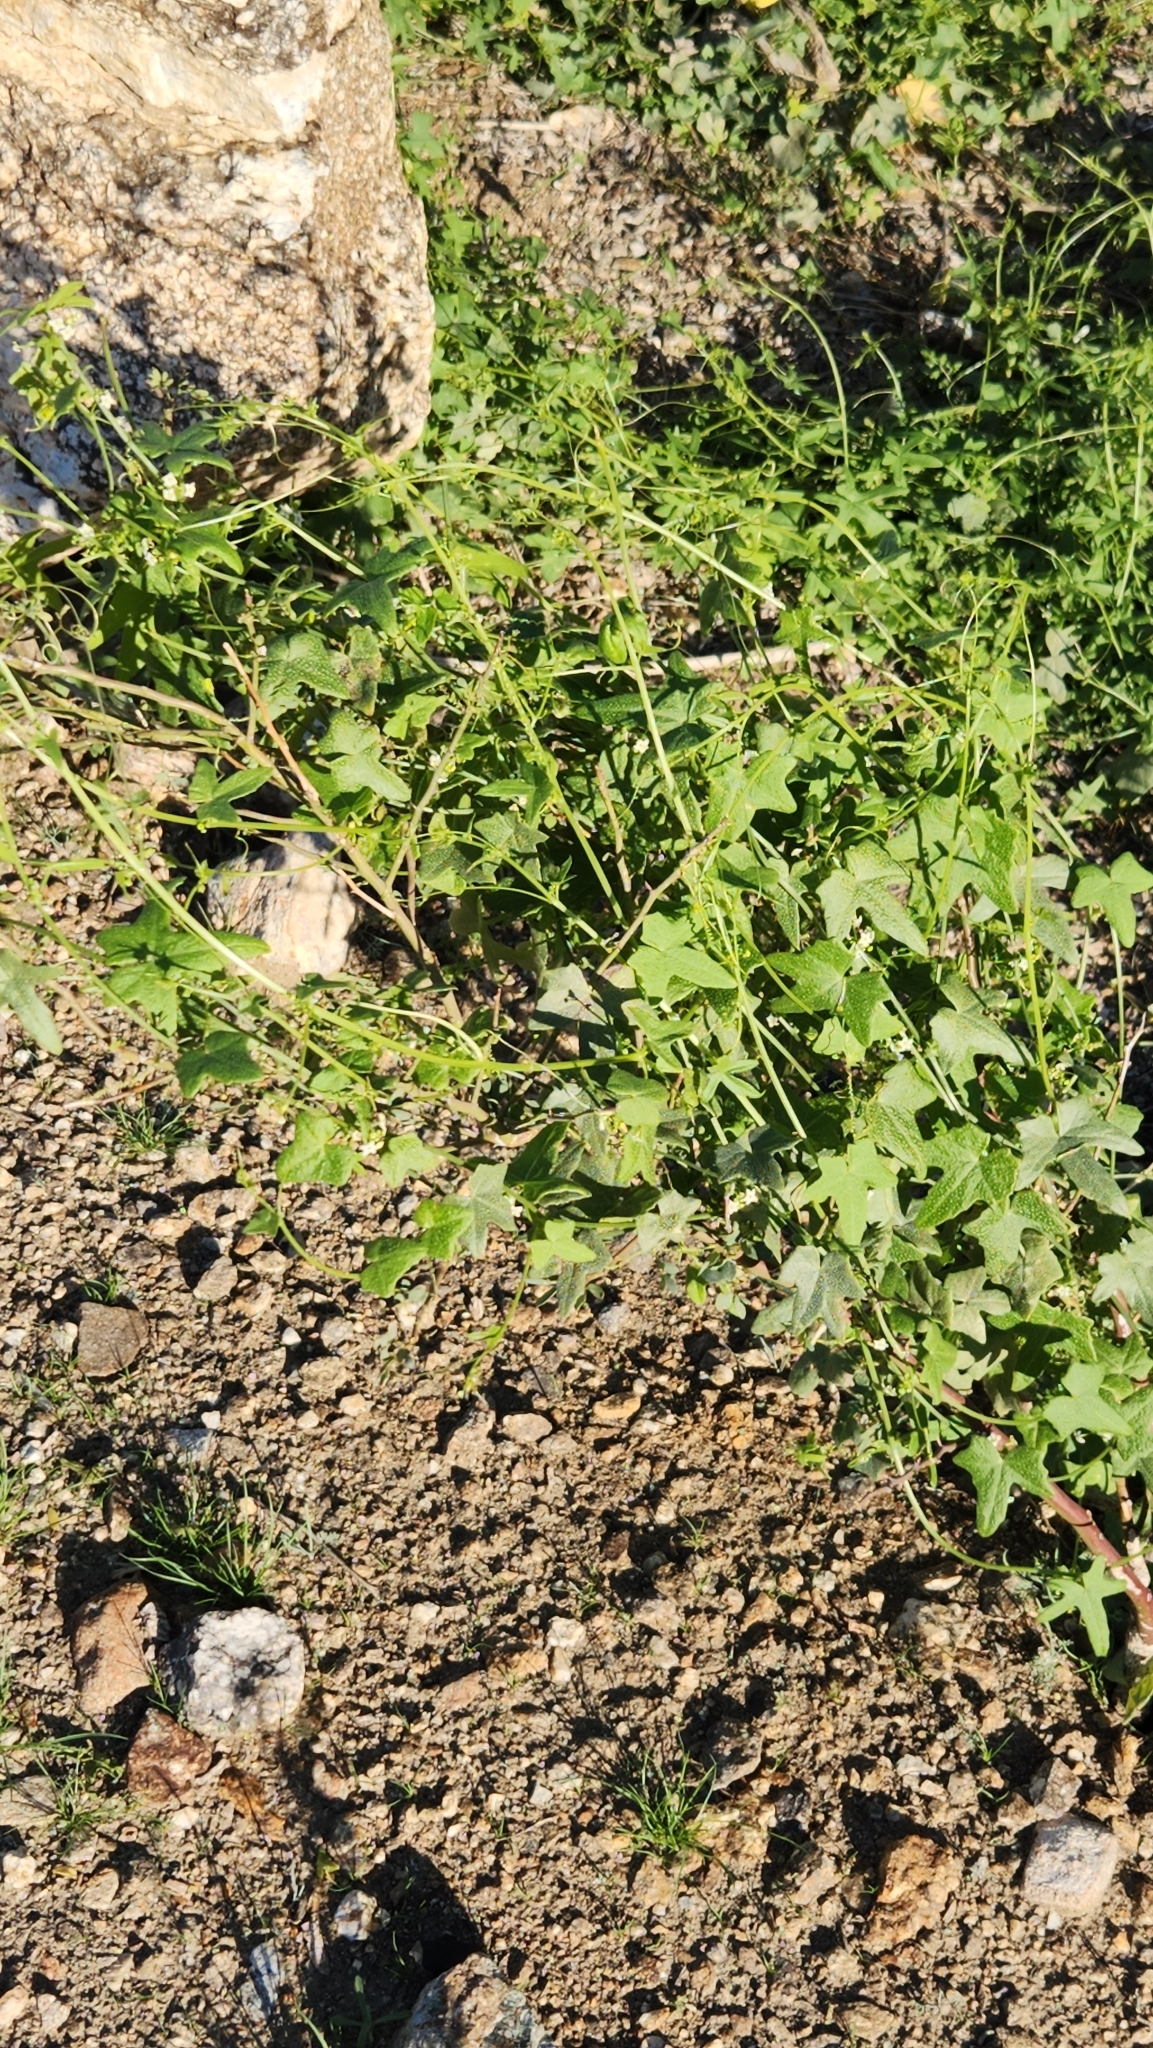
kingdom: Plantae
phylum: Tracheophyta
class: Magnoliopsida
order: Cucurbitales
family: Cucurbitaceae
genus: Echinopepon
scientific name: Echinopepon bigelovii
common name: Desert starvine
